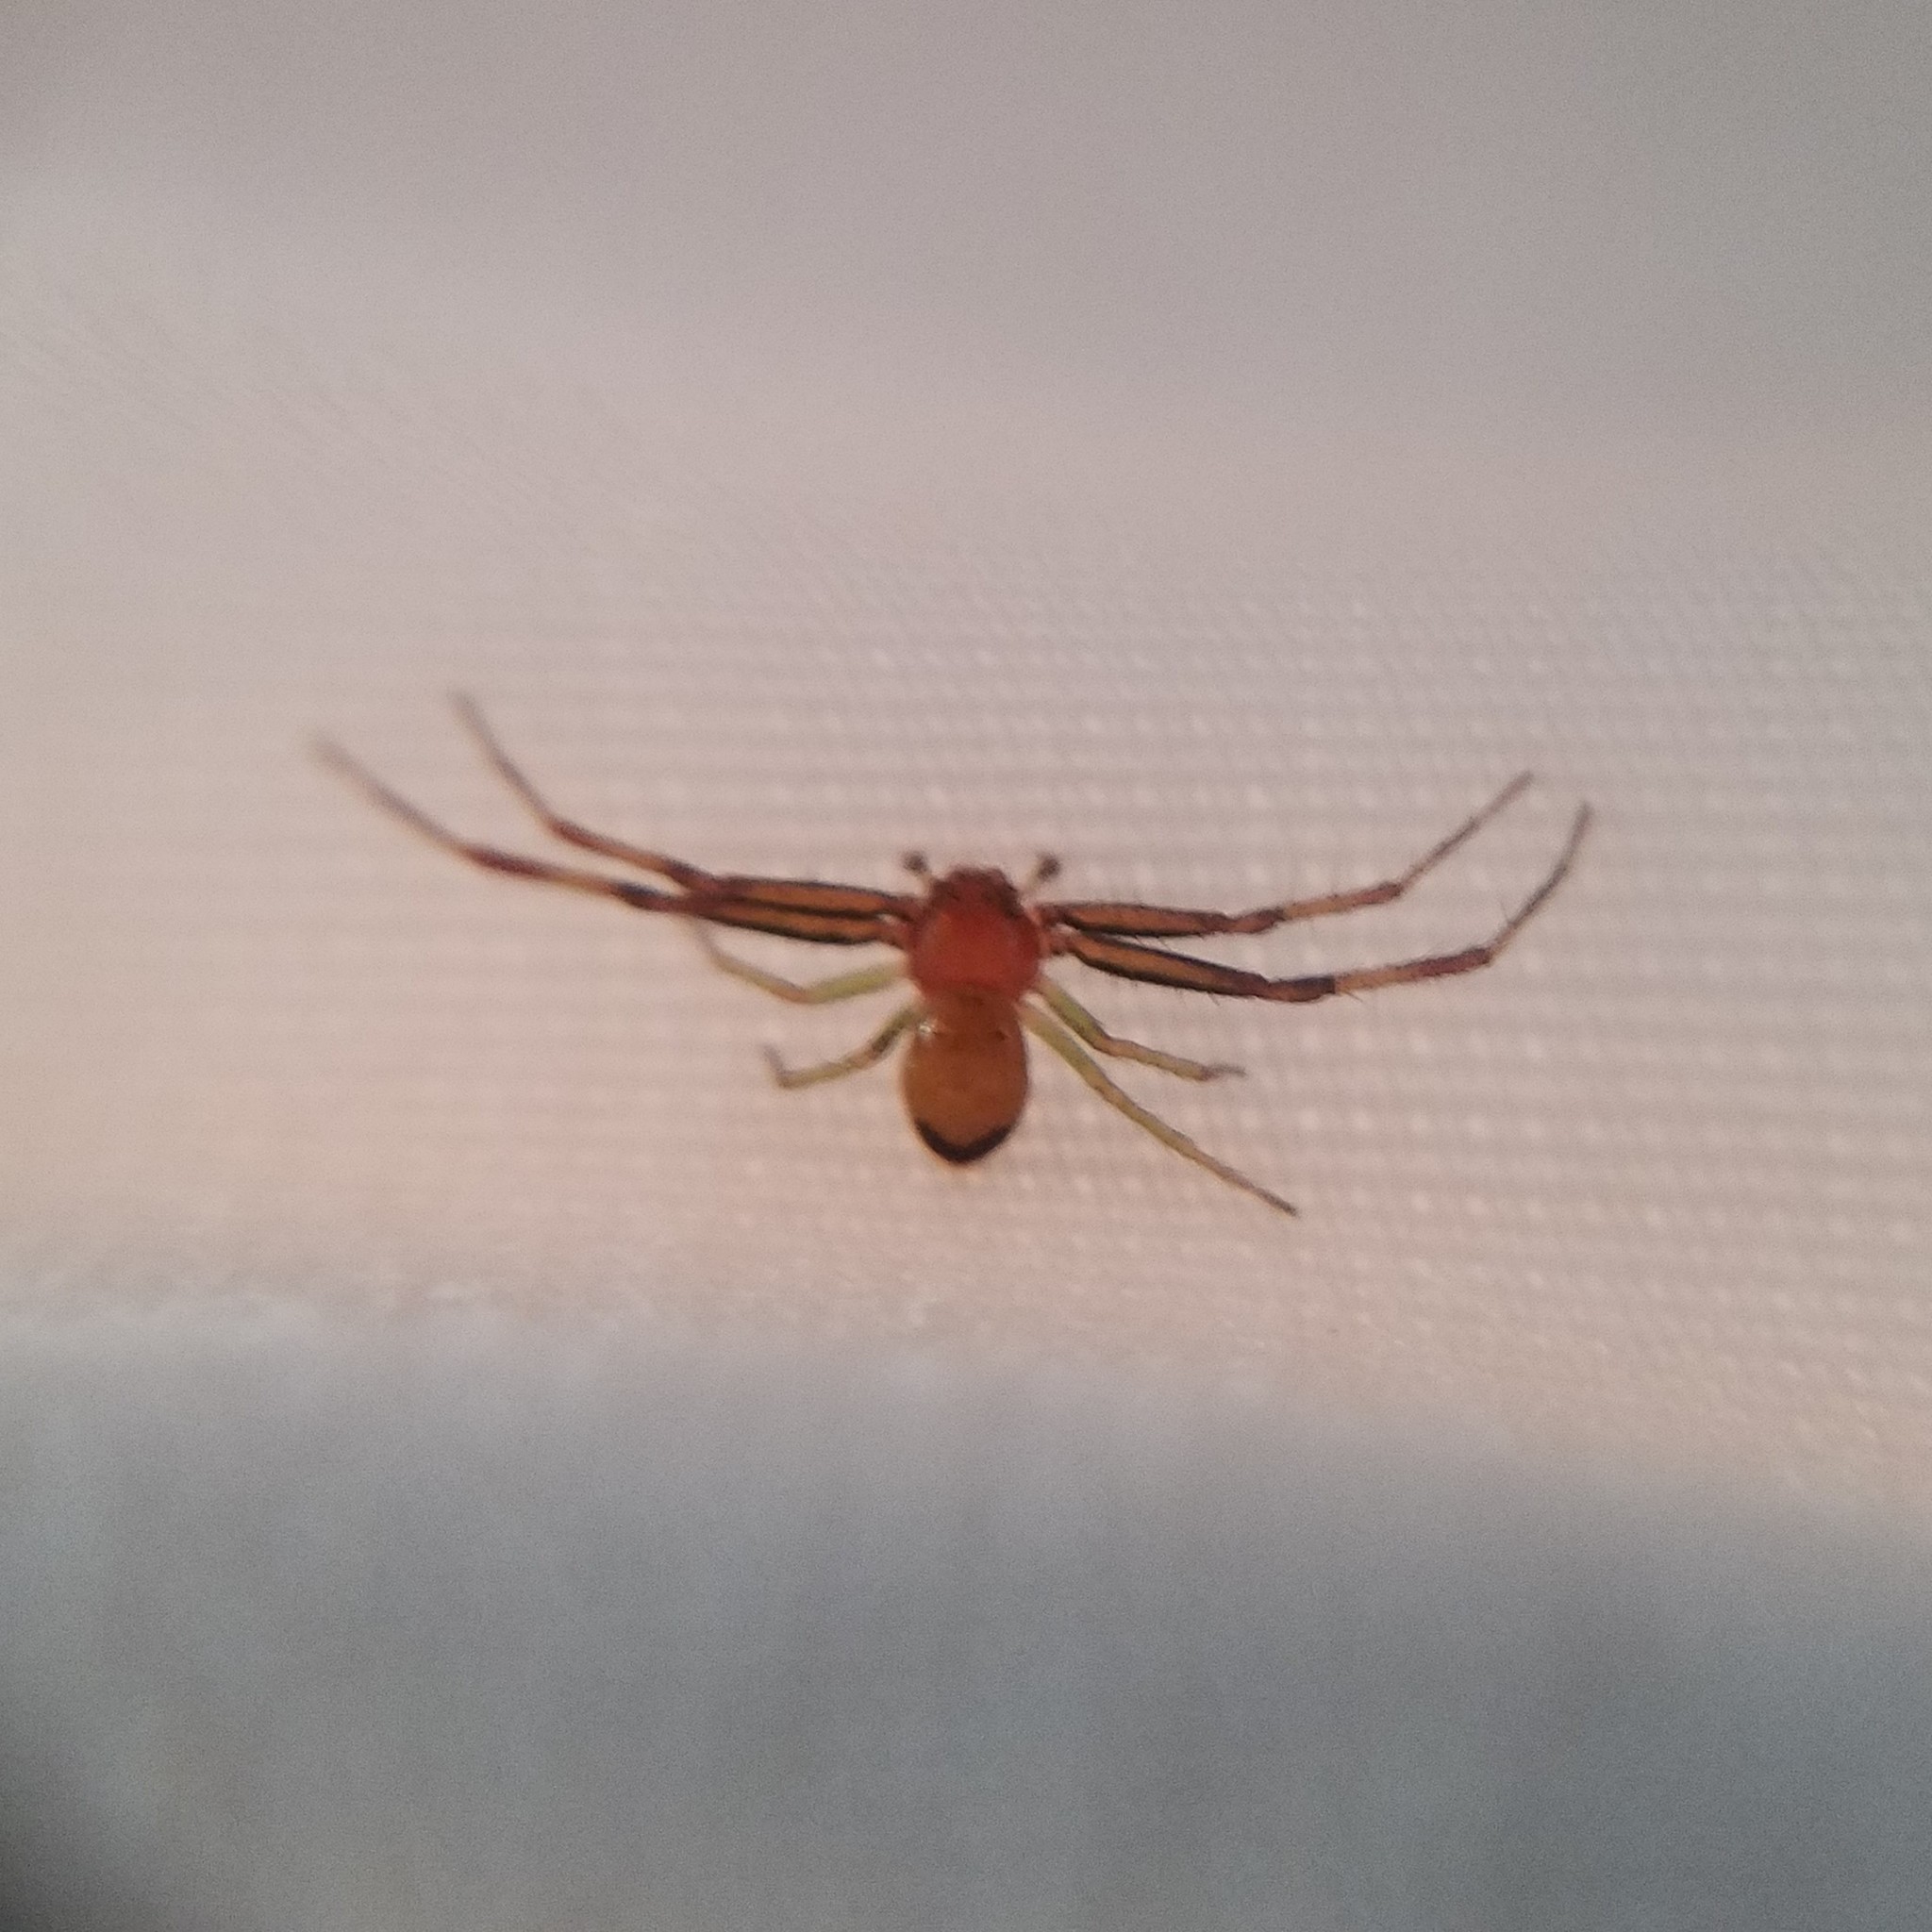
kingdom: Animalia
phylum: Arthropoda
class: Arachnida
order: Araneae
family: Thomisidae
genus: Synema
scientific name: Synema parvulum
